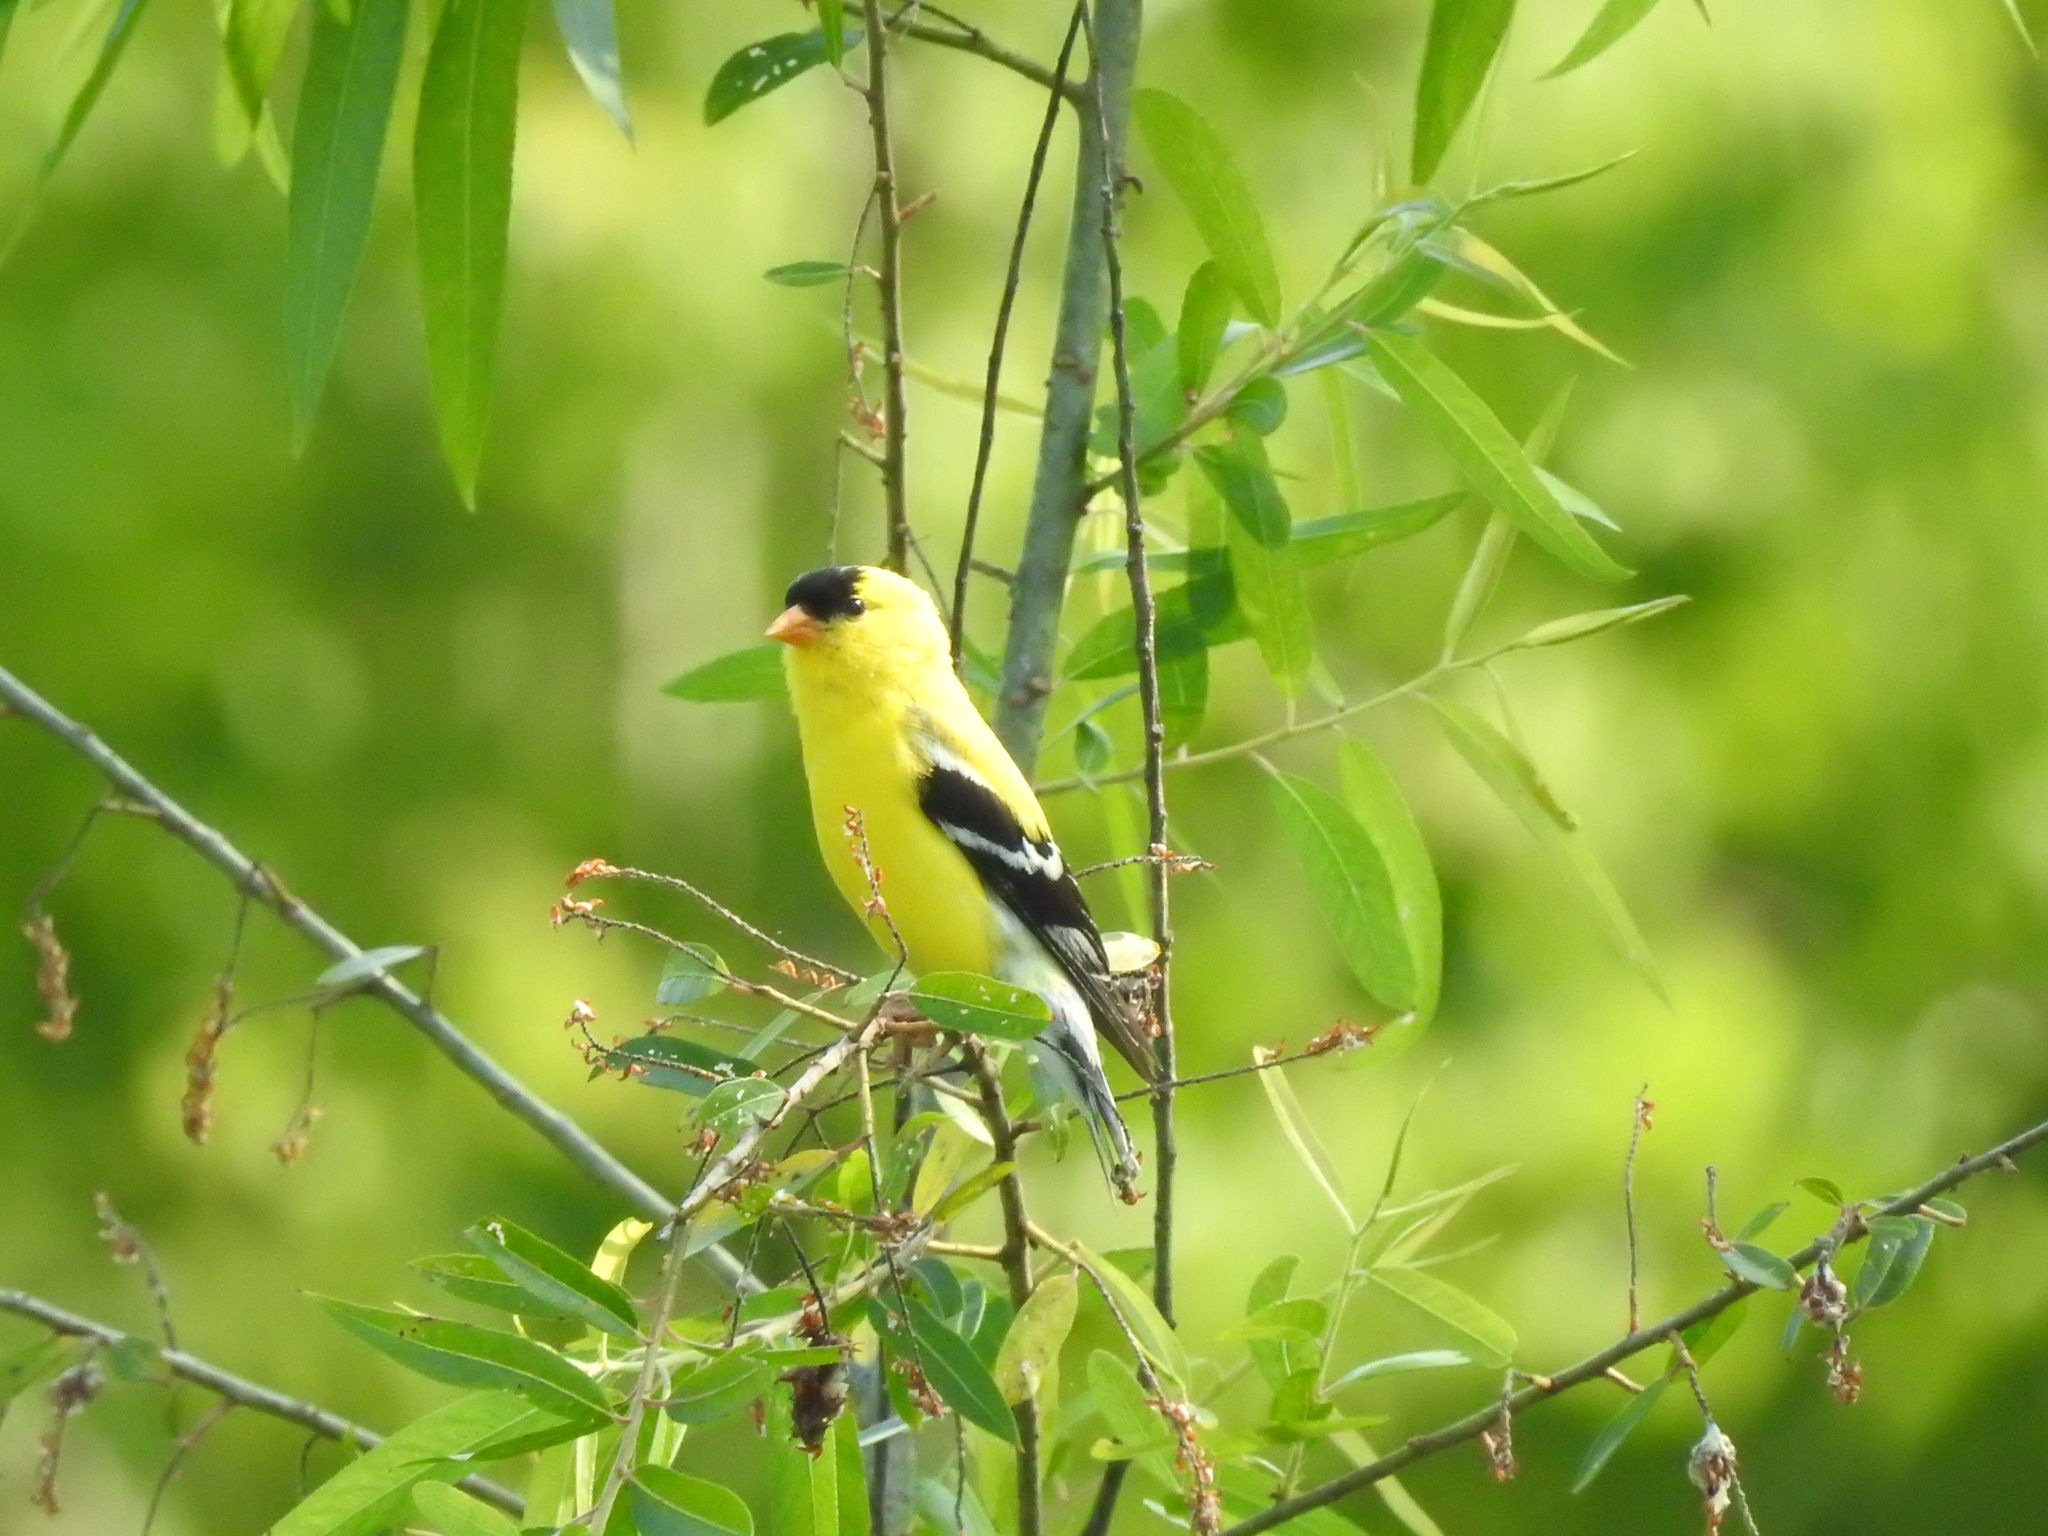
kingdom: Animalia
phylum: Chordata
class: Aves
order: Passeriformes
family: Fringillidae
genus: Spinus
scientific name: Spinus tristis
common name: American goldfinch
